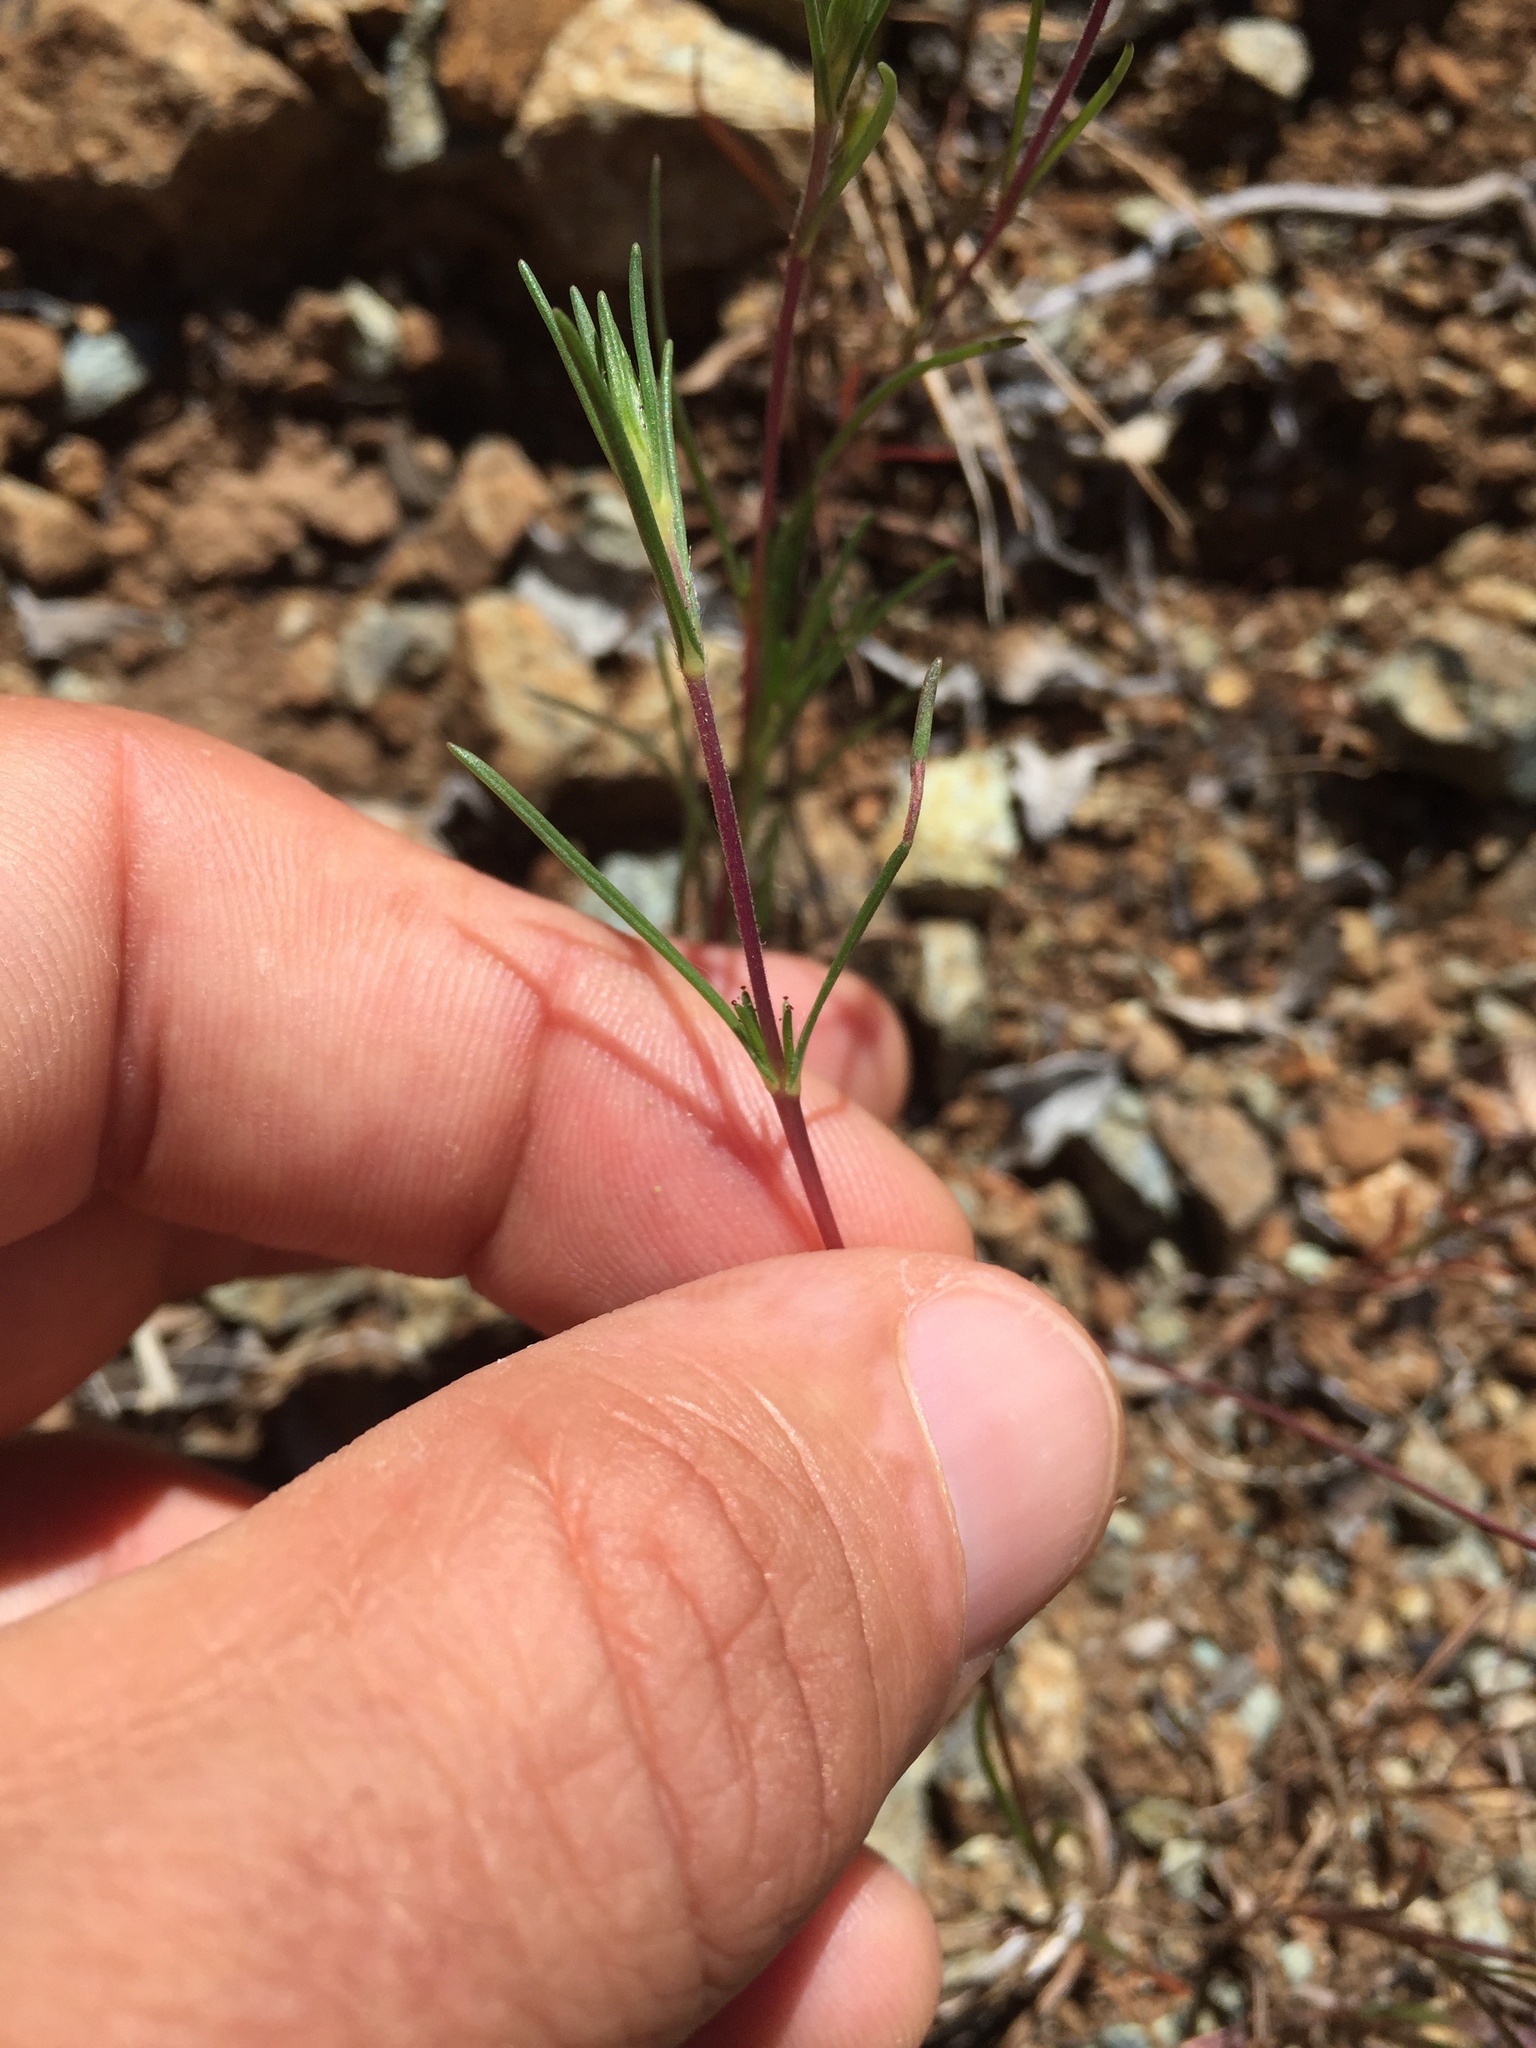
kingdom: Plantae
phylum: Tracheophyta
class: Magnoliopsida
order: Asterales
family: Asteraceae
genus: Calycadenia
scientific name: Calycadenia multiglandulosa
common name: Sticky calycadenia
